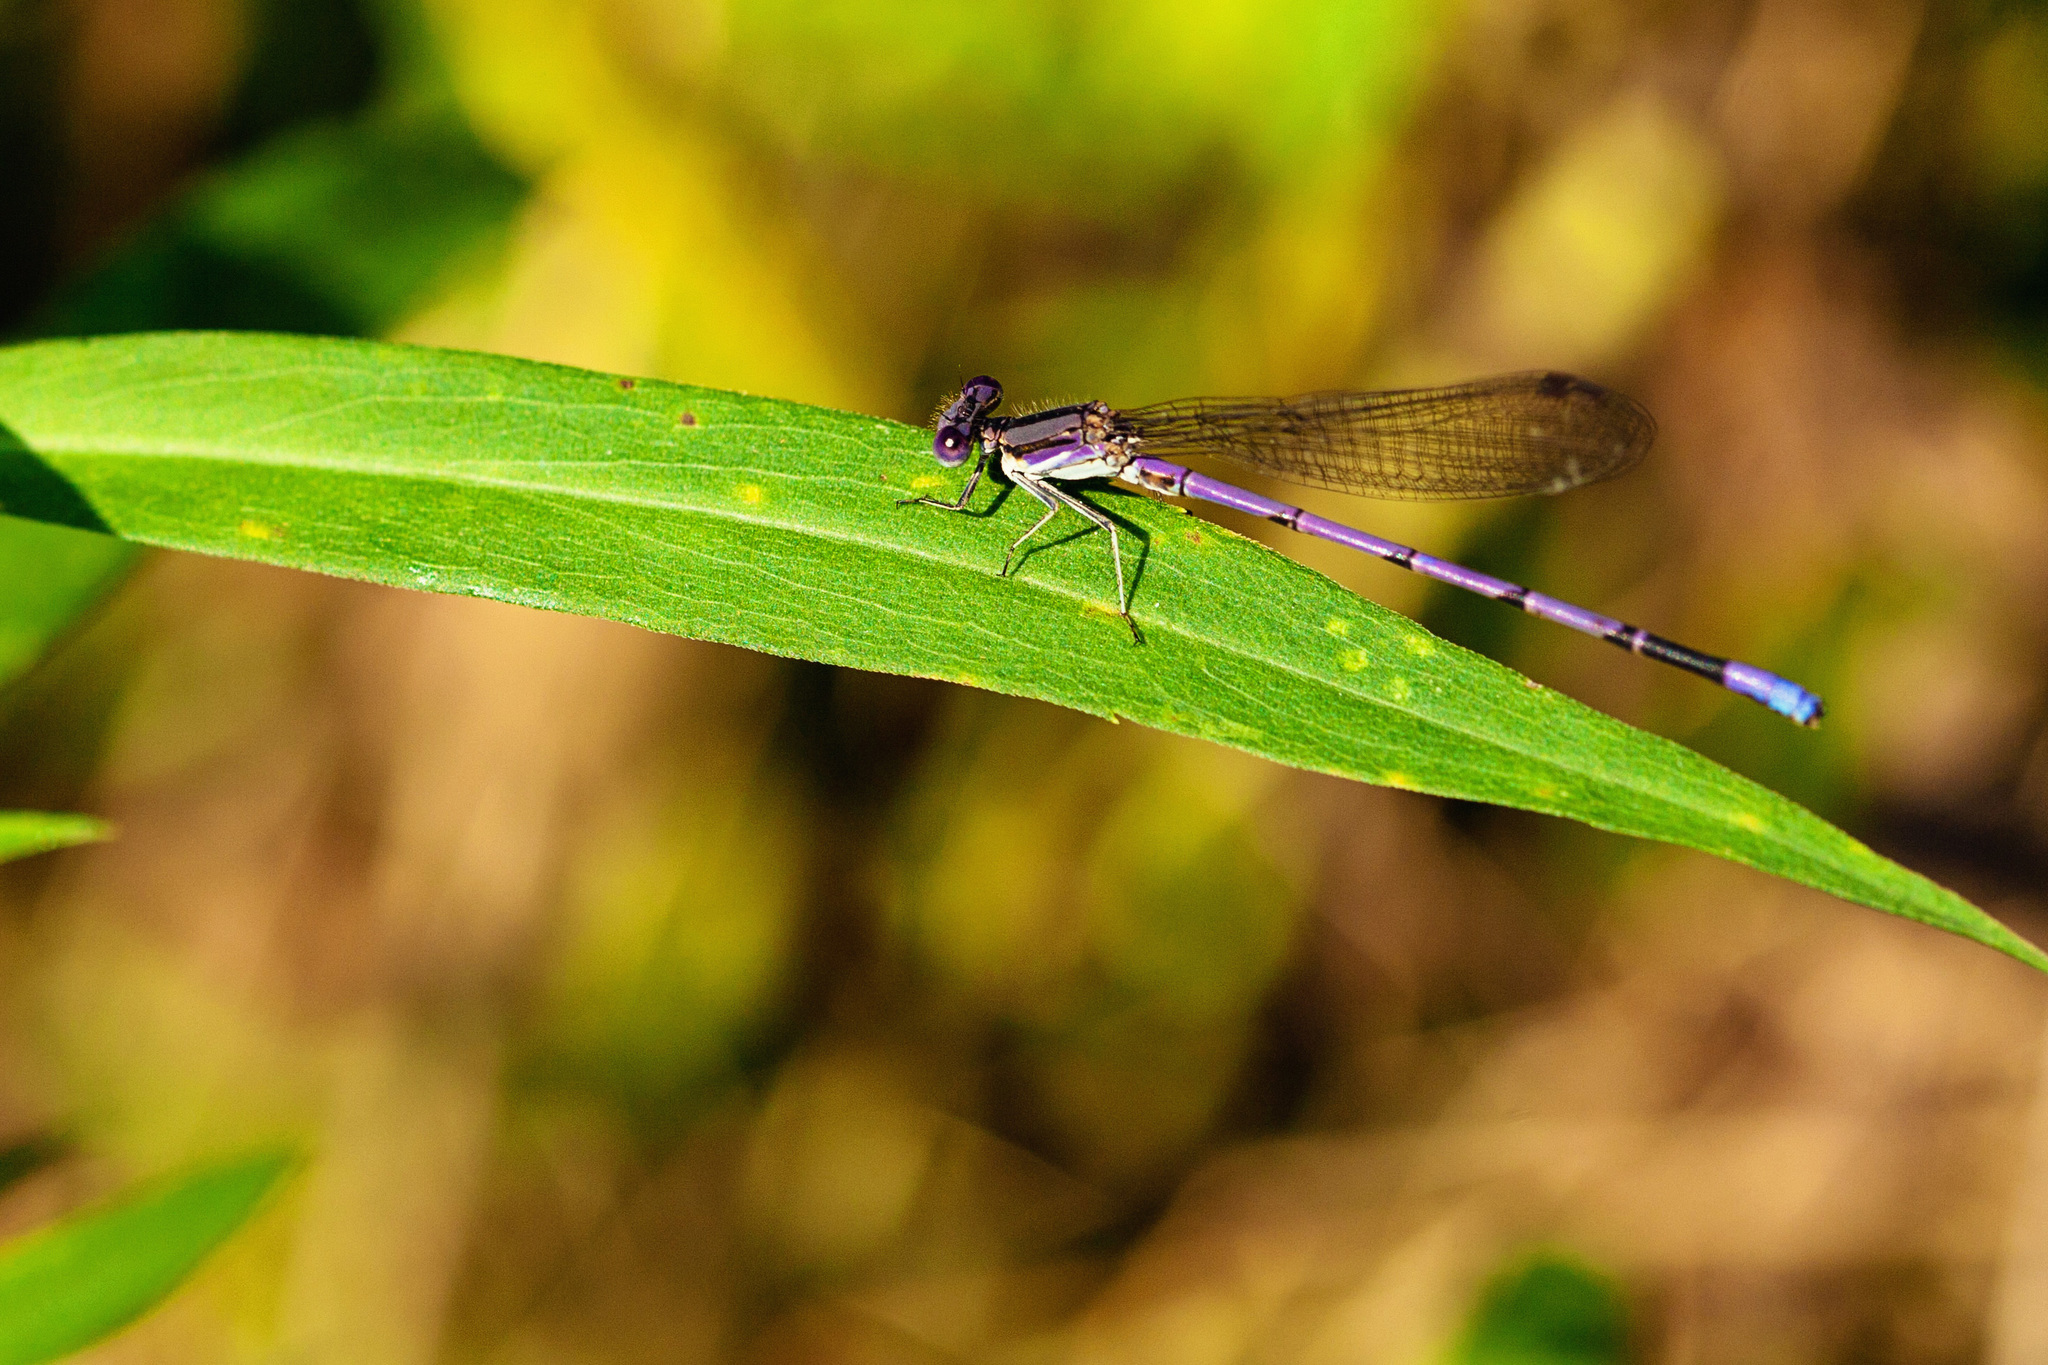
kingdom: Animalia
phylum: Arthropoda
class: Insecta
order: Odonata
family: Coenagrionidae
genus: Argia
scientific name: Argia fumipennis
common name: Variable dancer
